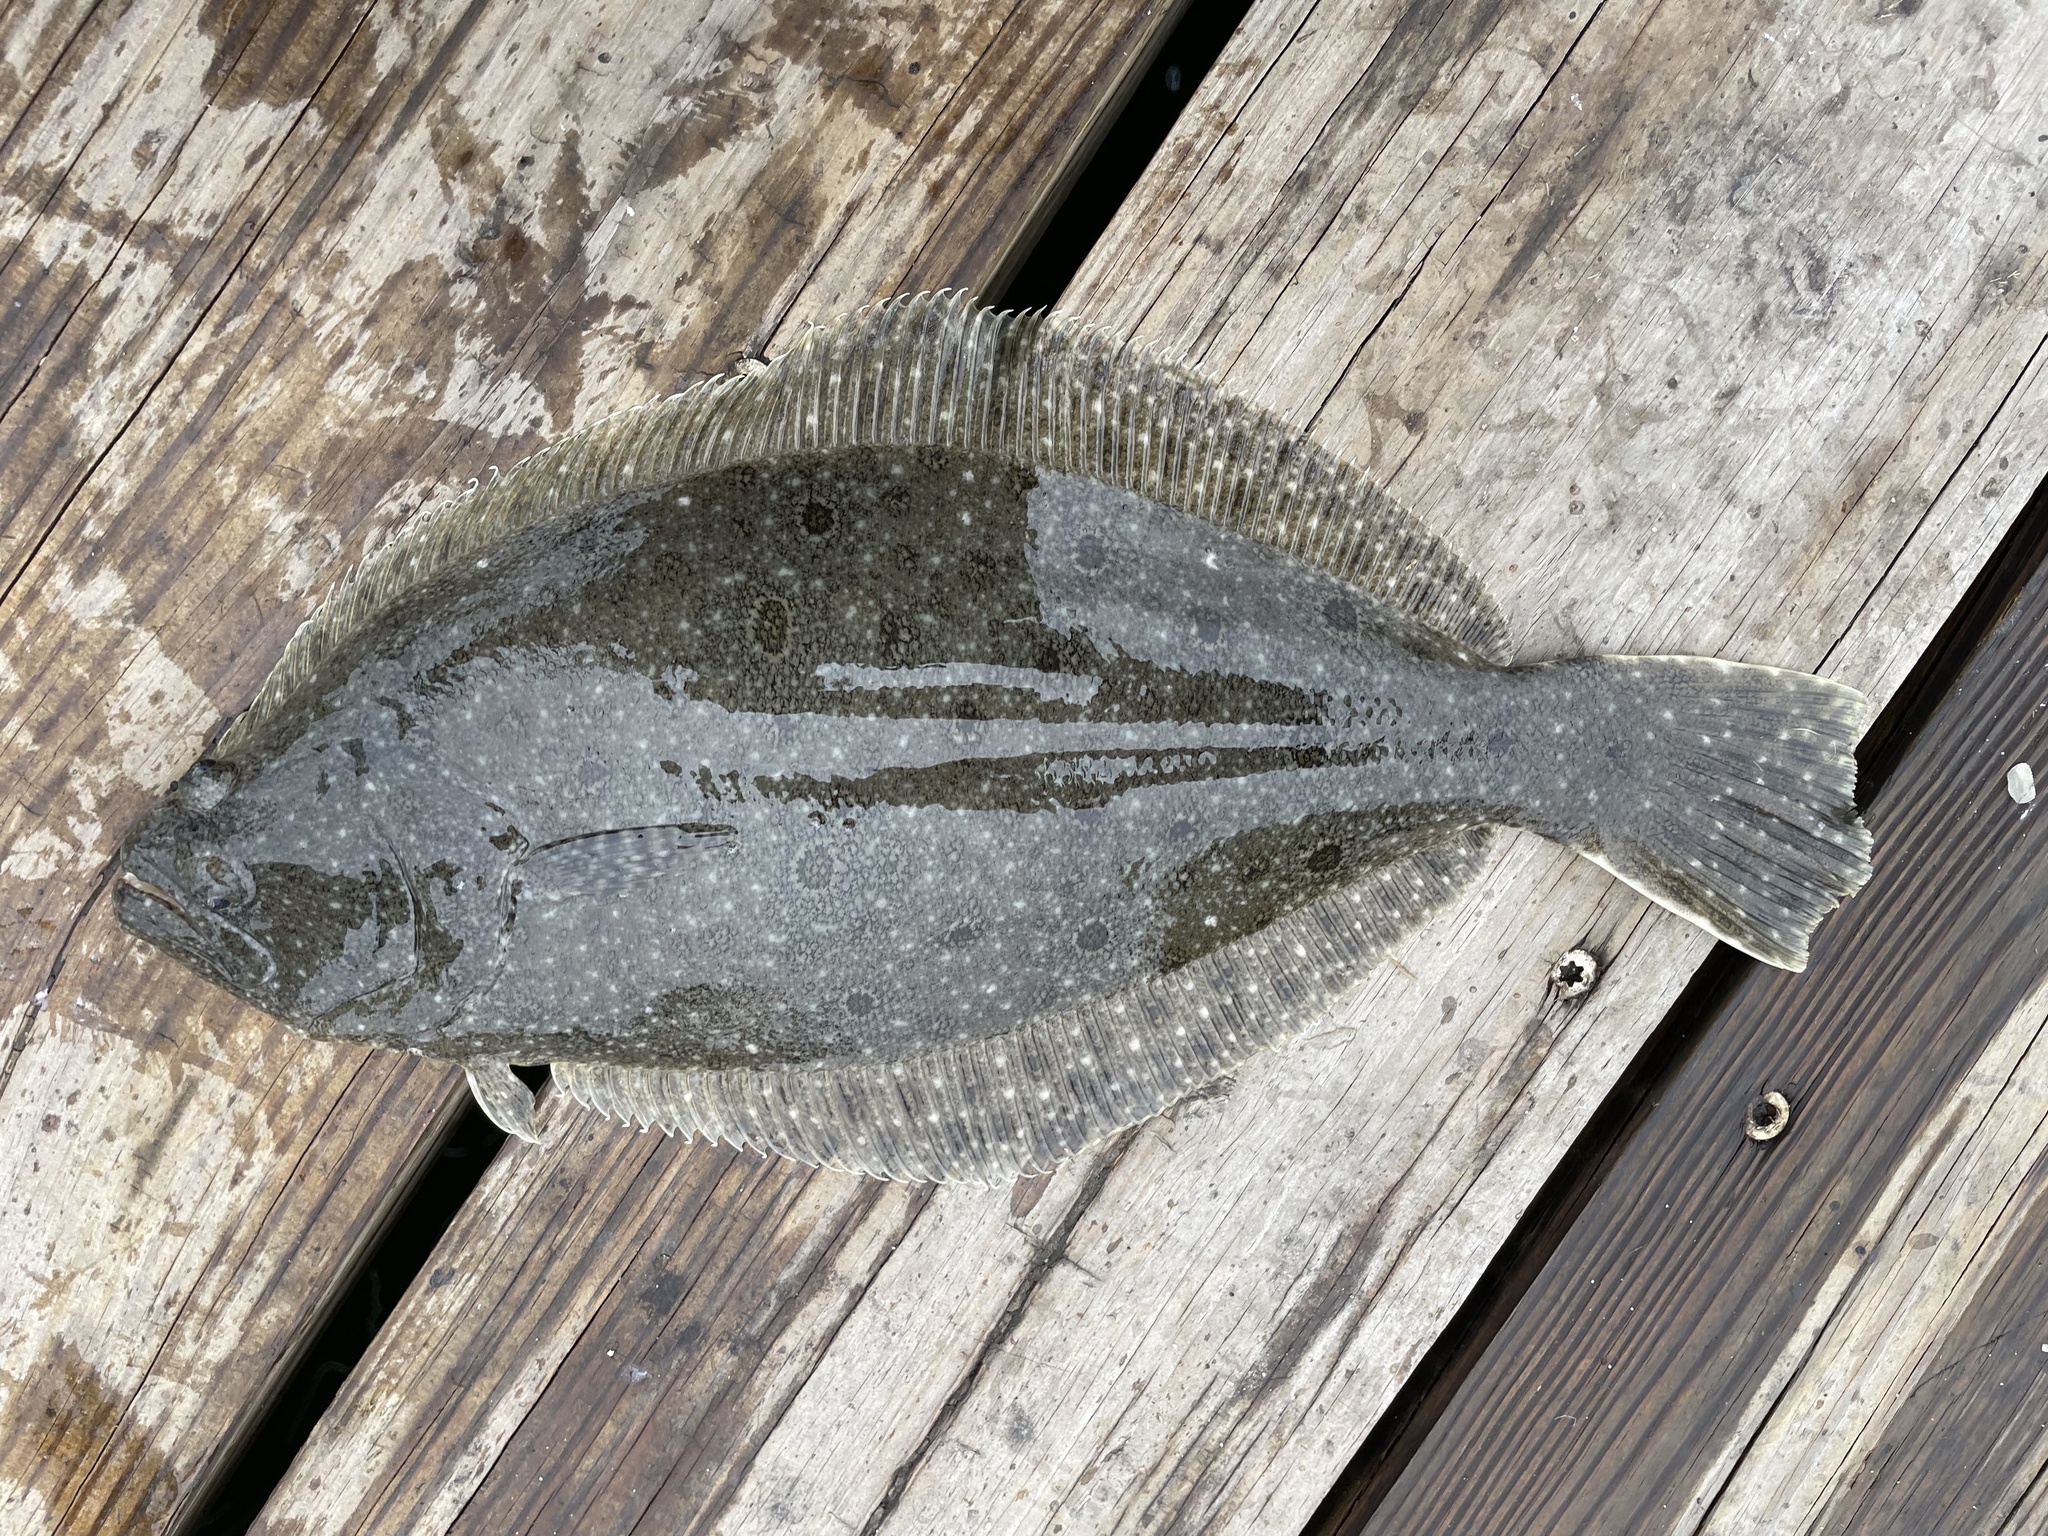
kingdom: Animalia
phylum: Chordata
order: Pleuronectiformes
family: Paralichthyidae
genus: Paralichthys
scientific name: Paralichthys dentatus
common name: Summer flounder
